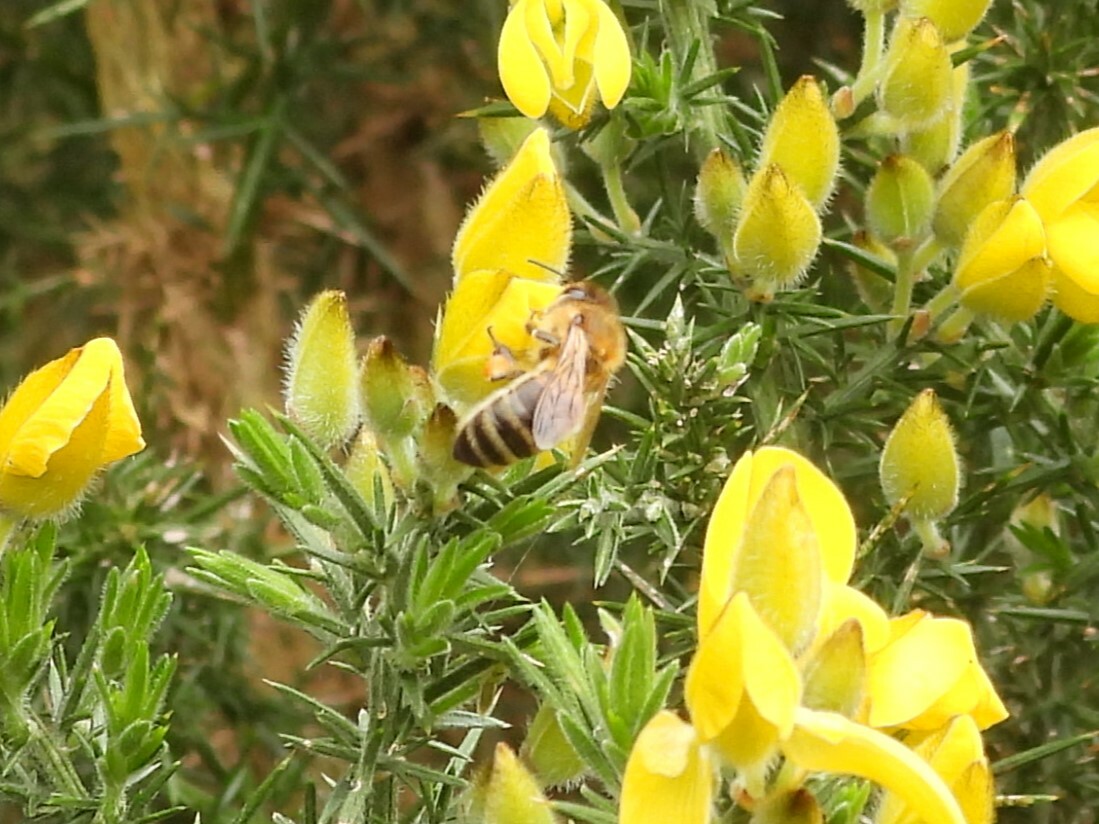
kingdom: Animalia
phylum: Arthropoda
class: Insecta
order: Hymenoptera
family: Apidae
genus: Apis
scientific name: Apis mellifera
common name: Honey bee
